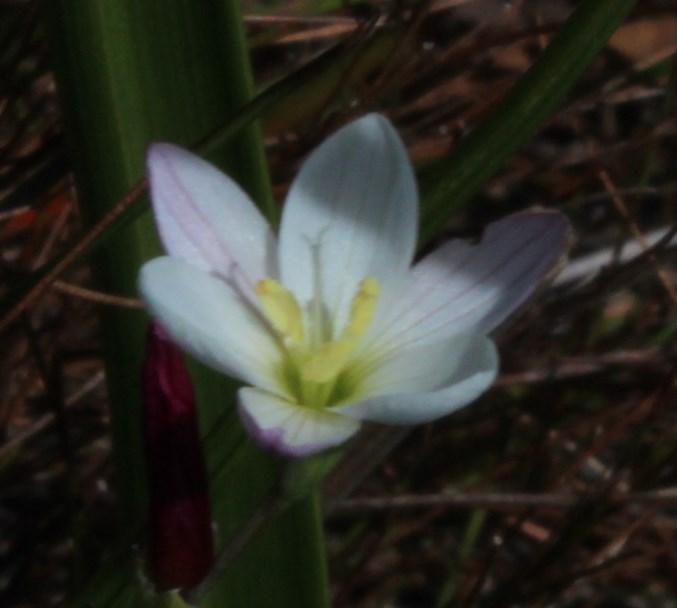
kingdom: Plantae
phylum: Tracheophyta
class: Liliopsida
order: Asparagales
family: Iridaceae
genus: Geissorhiza
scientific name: Geissorhiza umbrosa
